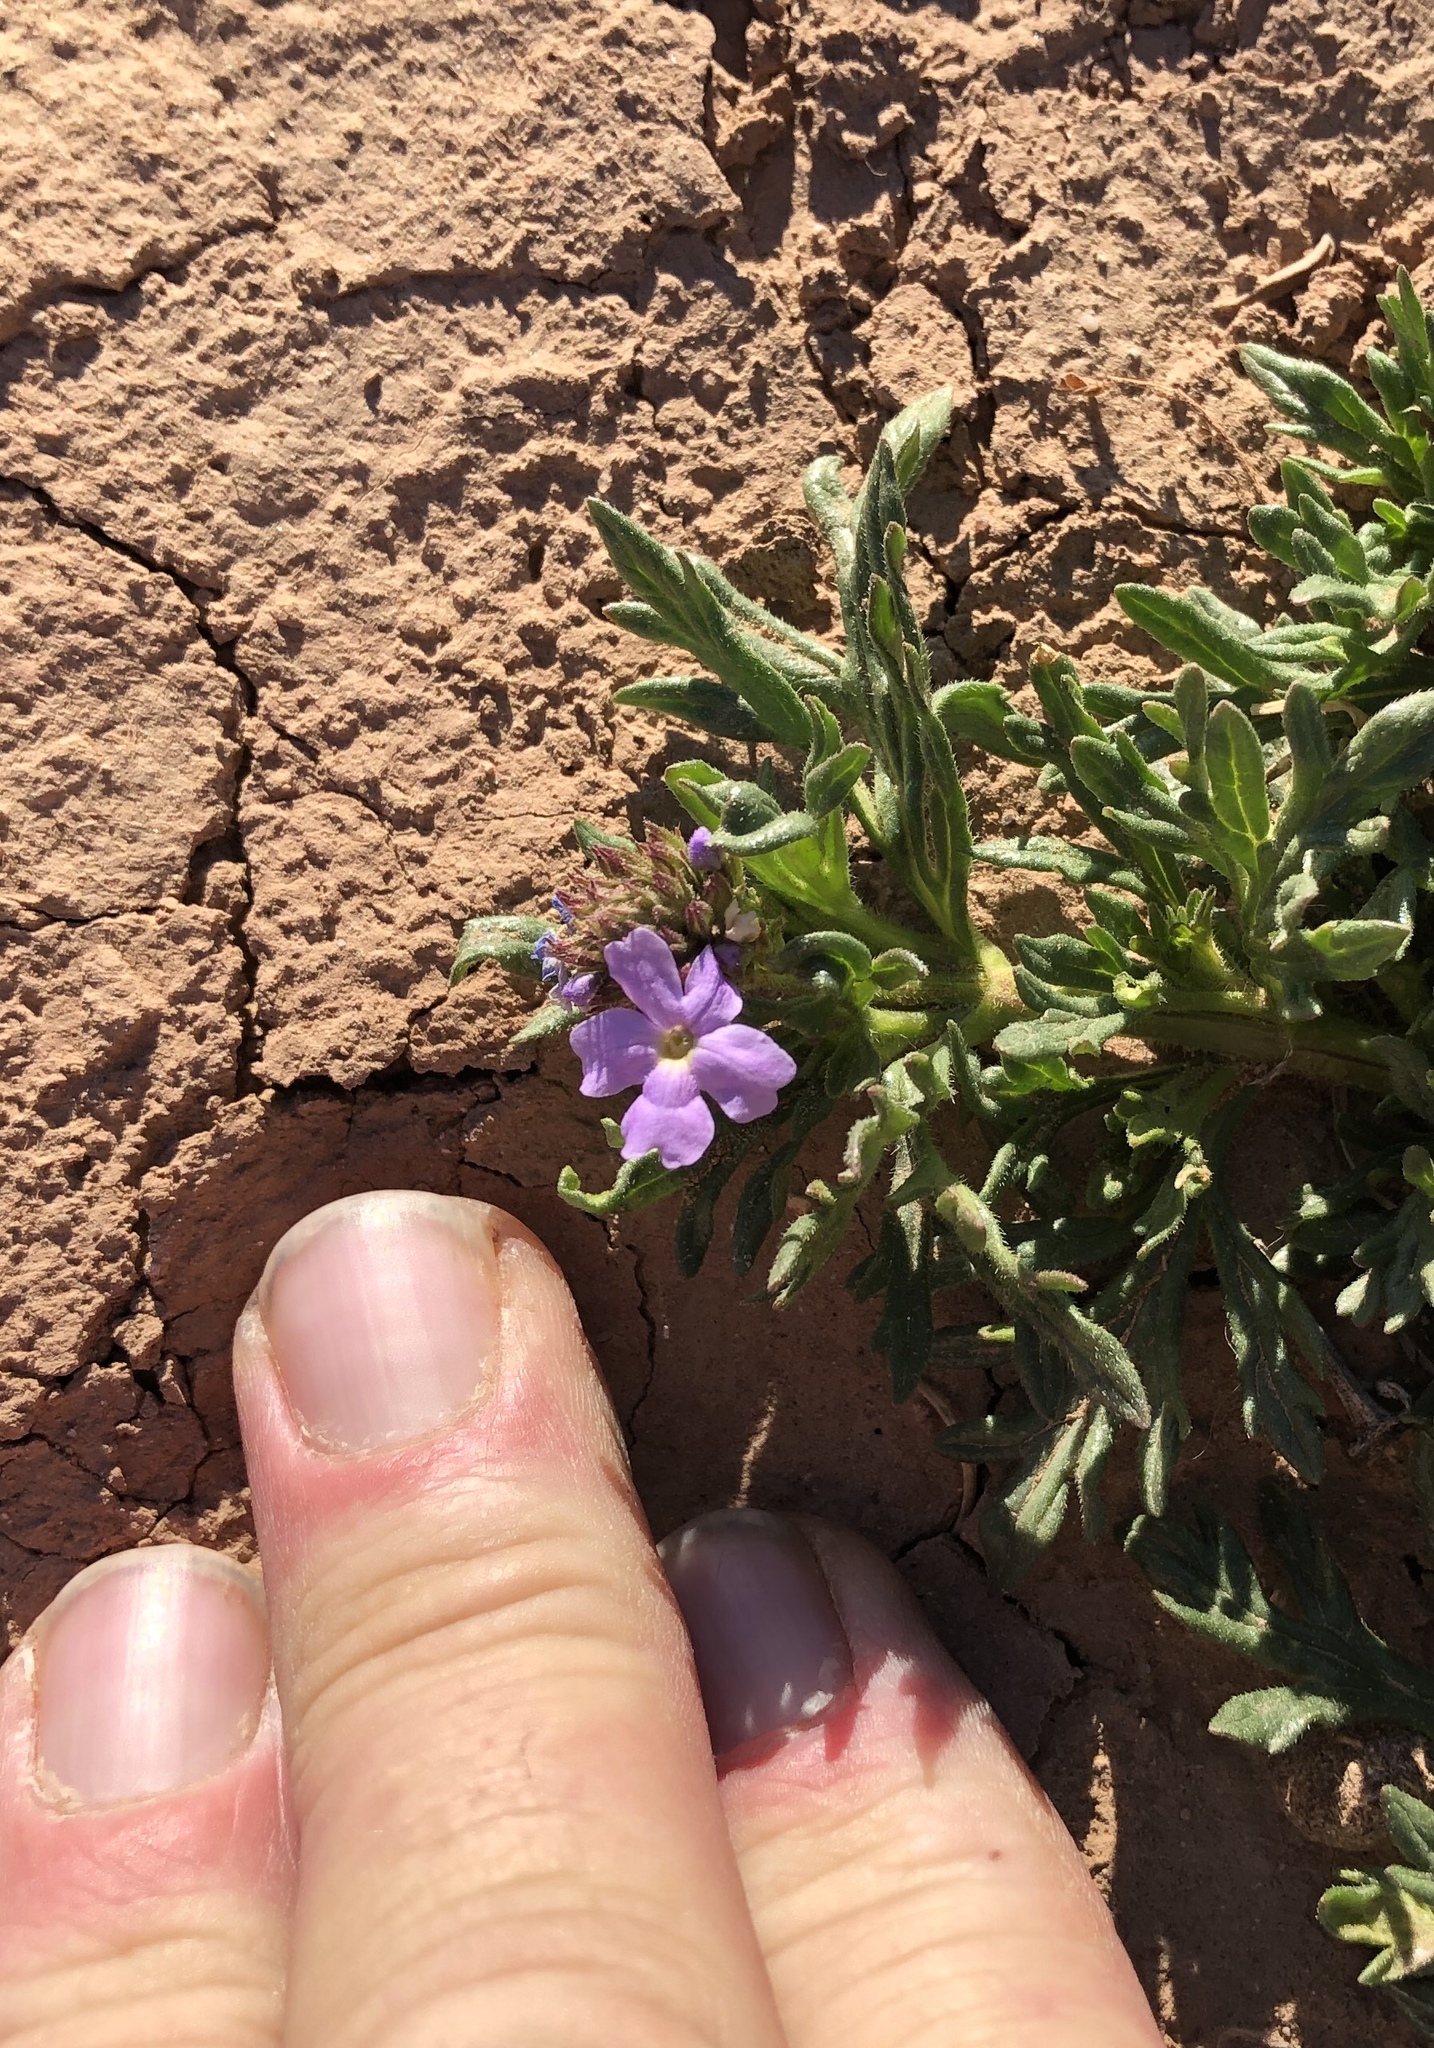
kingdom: Plantae
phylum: Tracheophyta
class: Magnoliopsida
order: Lamiales
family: Verbenaceae
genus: Verbena
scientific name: Verbena bipinnatifida
